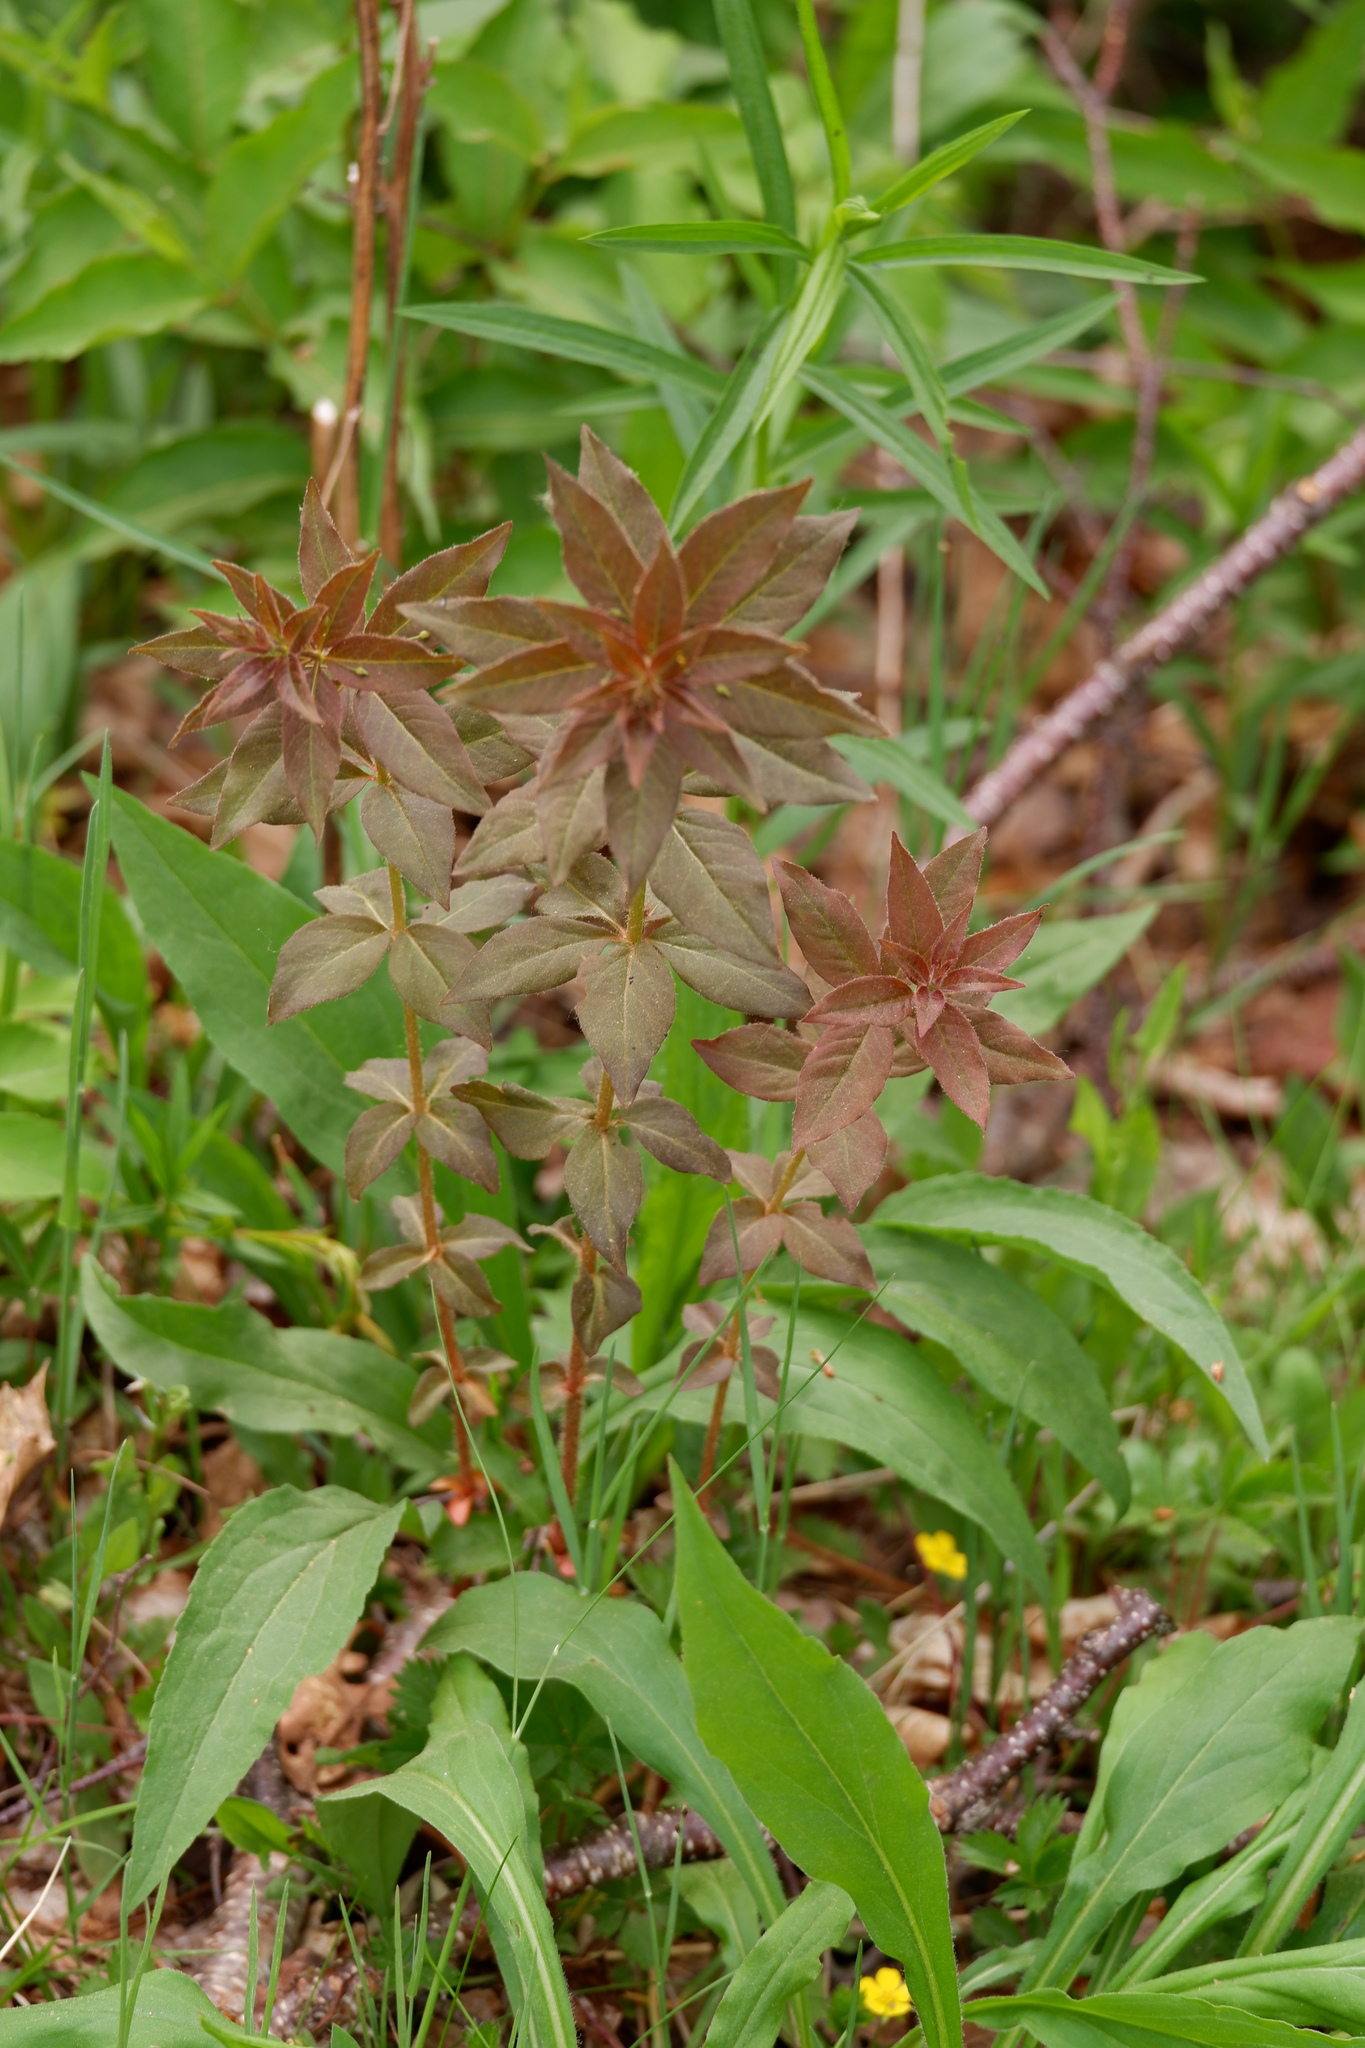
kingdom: Plantae
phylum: Tracheophyta
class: Magnoliopsida
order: Ericales
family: Primulaceae
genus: Lysimachia
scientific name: Lysimachia quadrifolia
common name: Whorled loosestrife
